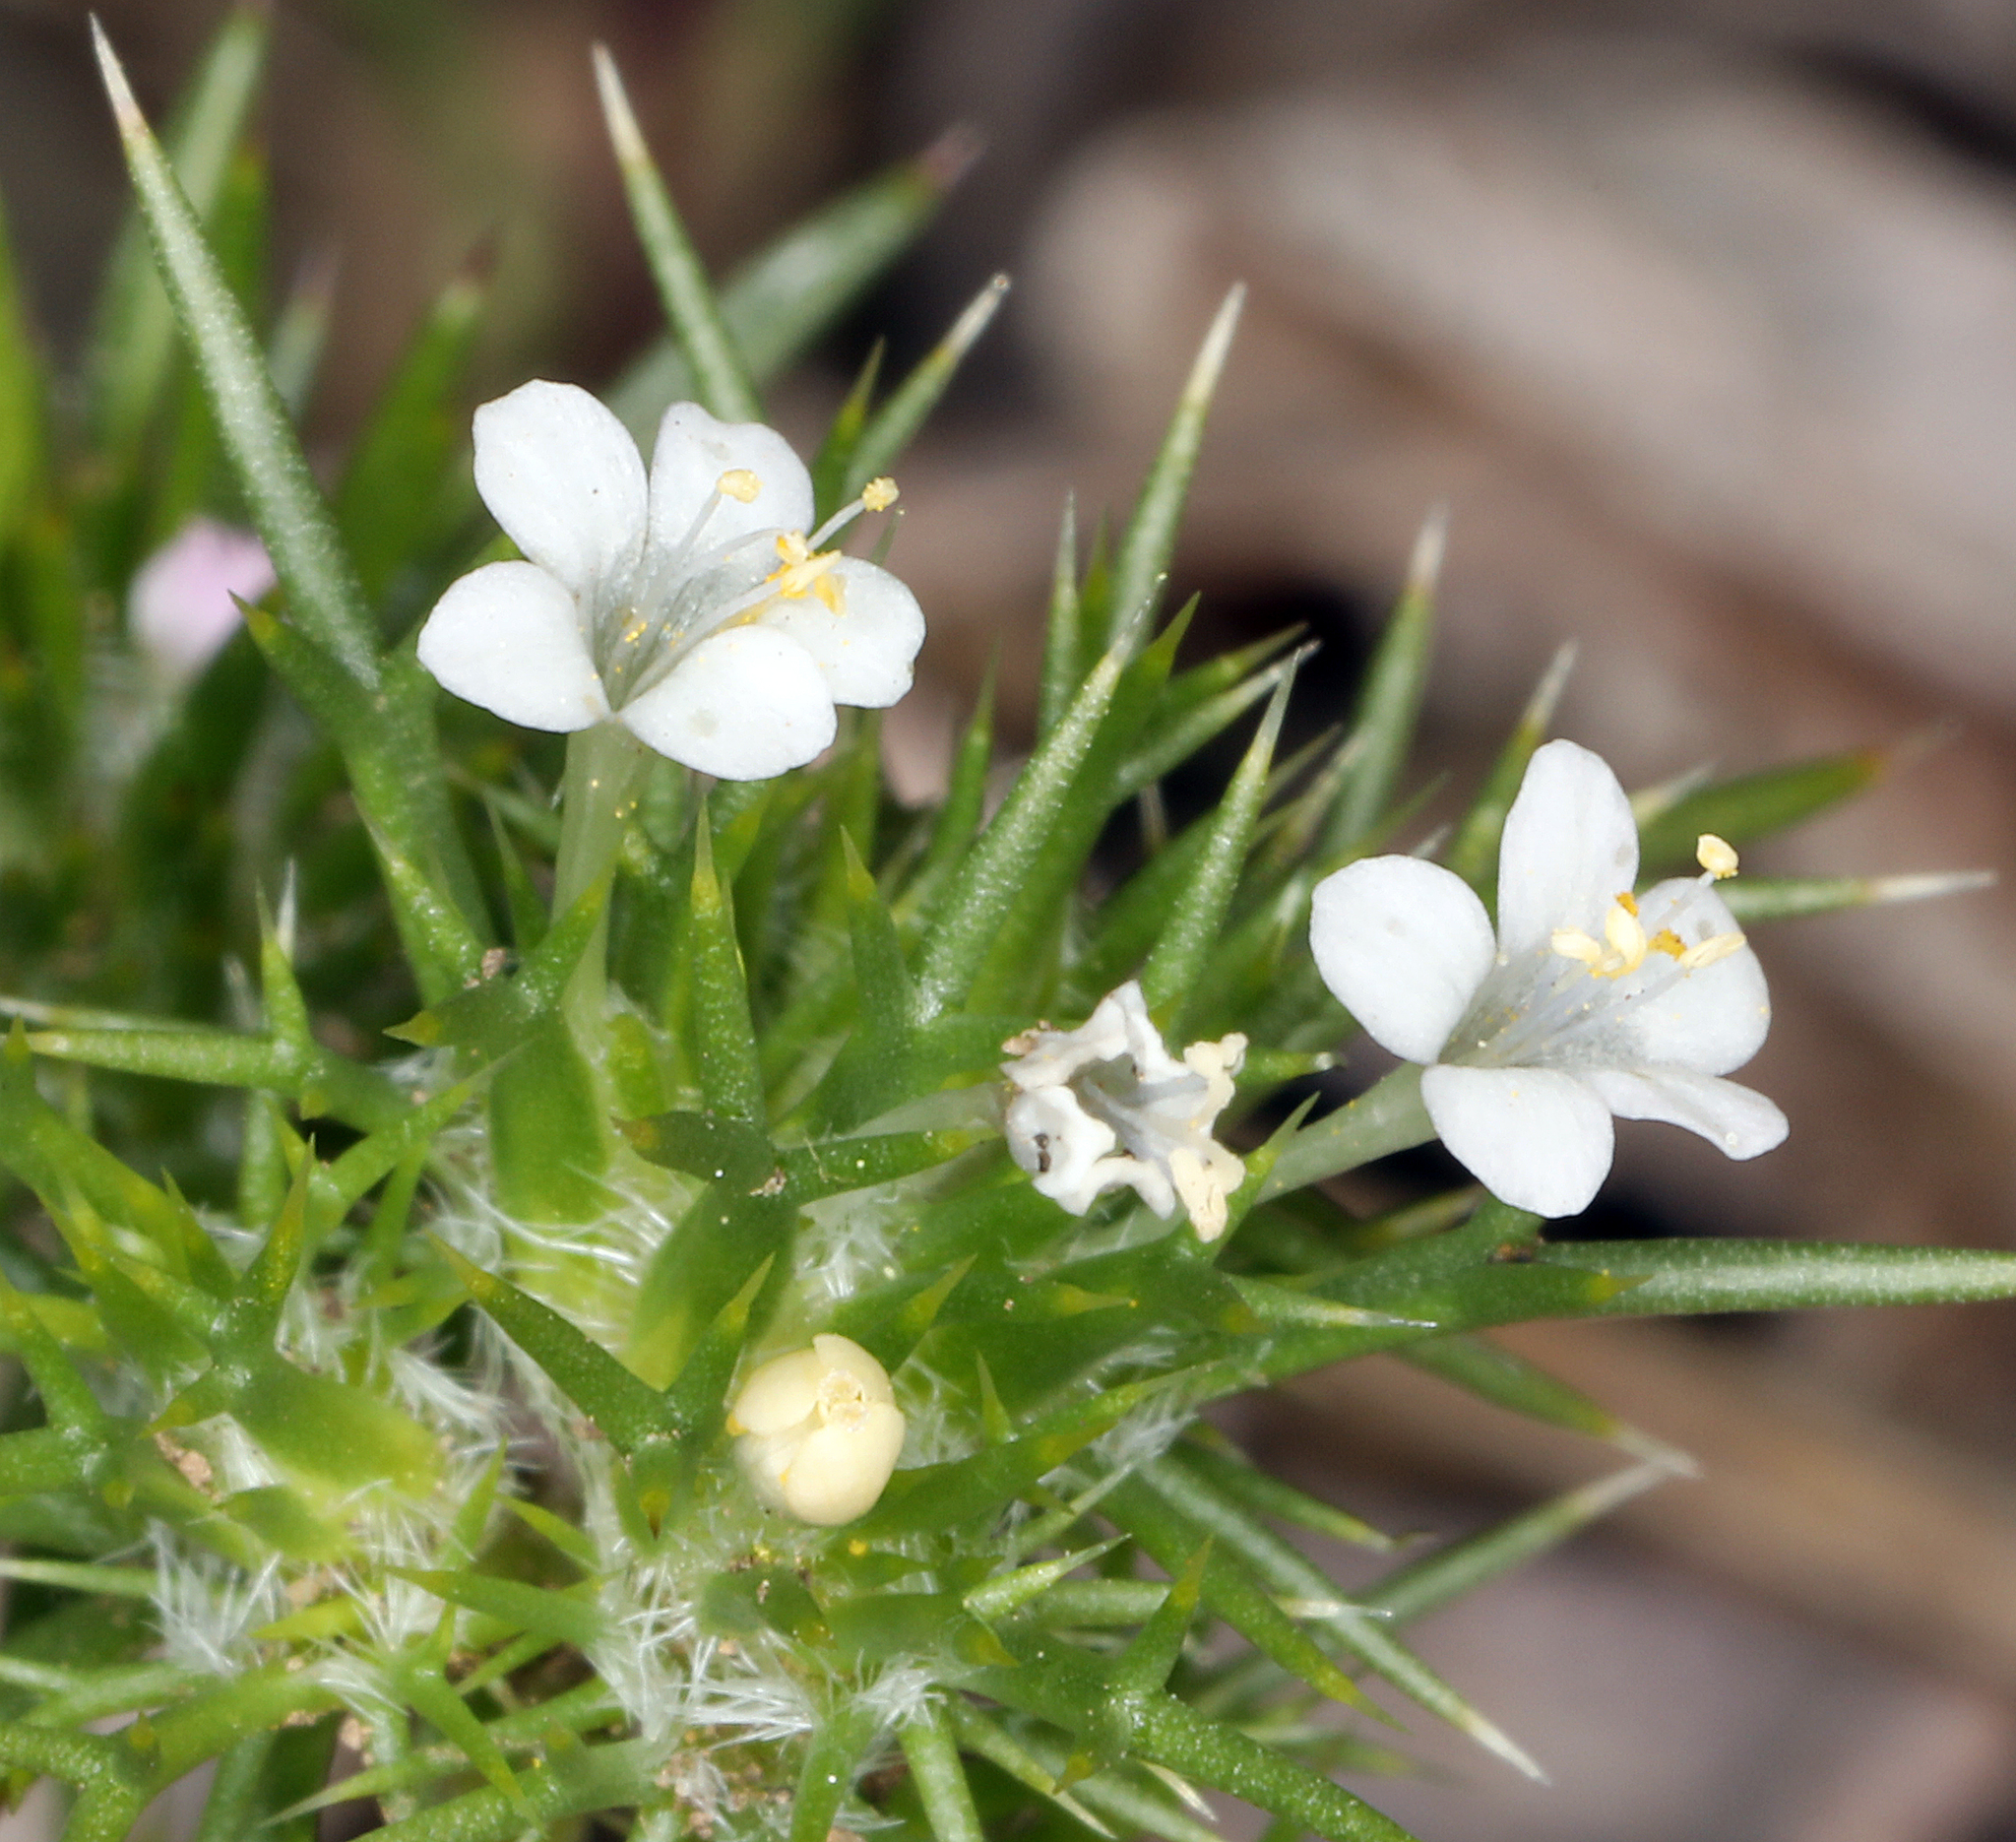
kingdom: Plantae
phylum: Tracheophyta
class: Magnoliopsida
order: Ericales
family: Polemoniaceae
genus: Navarretia
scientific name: Navarretia intertexta
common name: Needle-leaved navarretia
